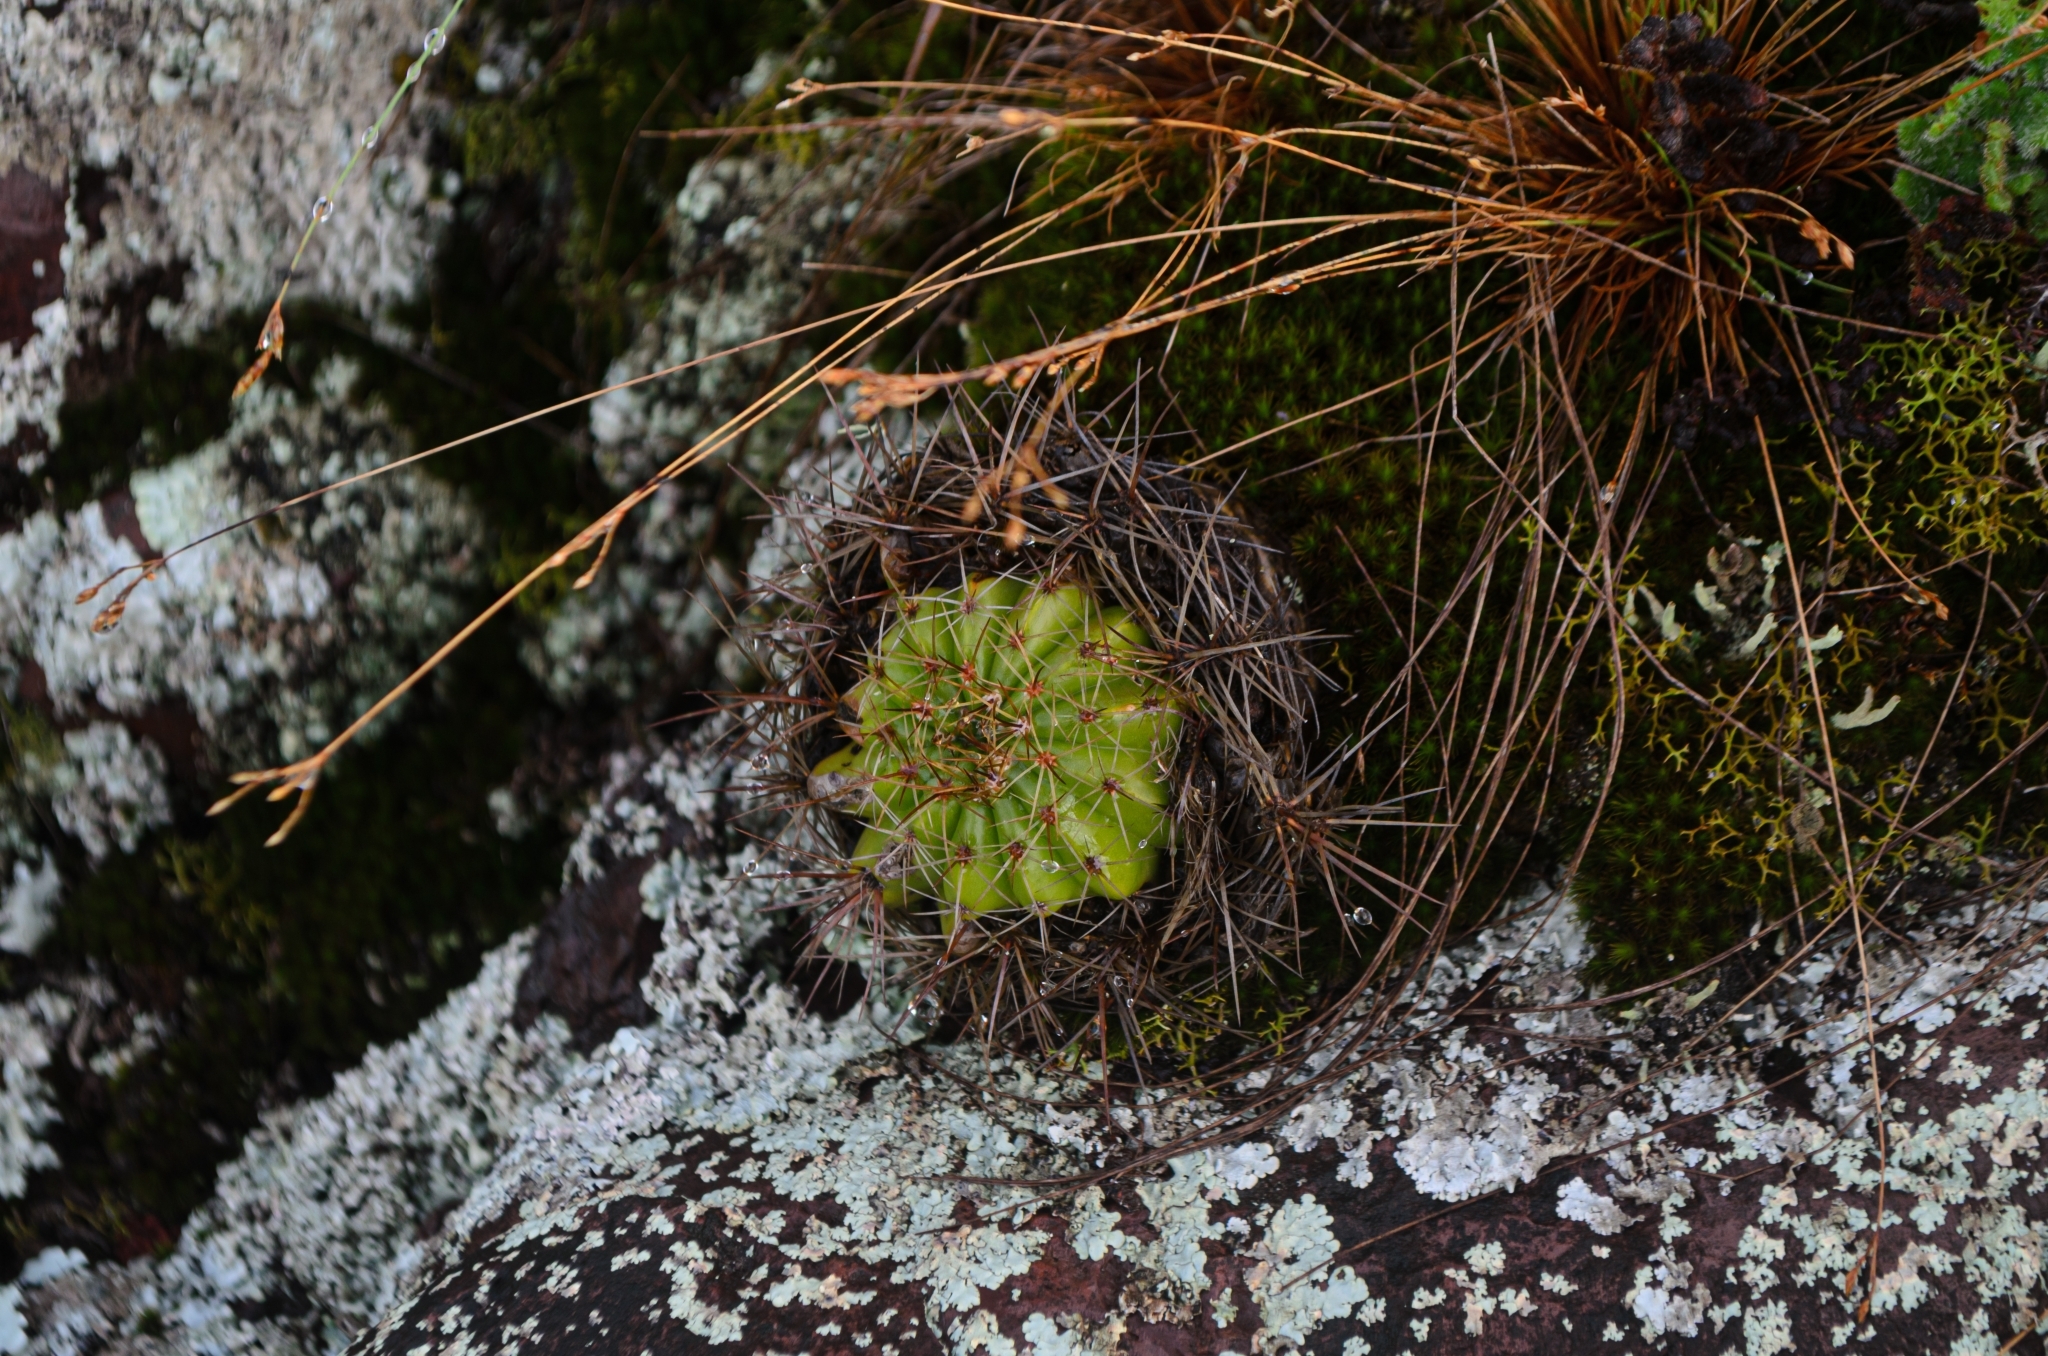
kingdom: Plantae
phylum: Tracheophyta
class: Magnoliopsida
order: Caryophyllales
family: Cactaceae
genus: Parodia
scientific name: Parodia linkii
